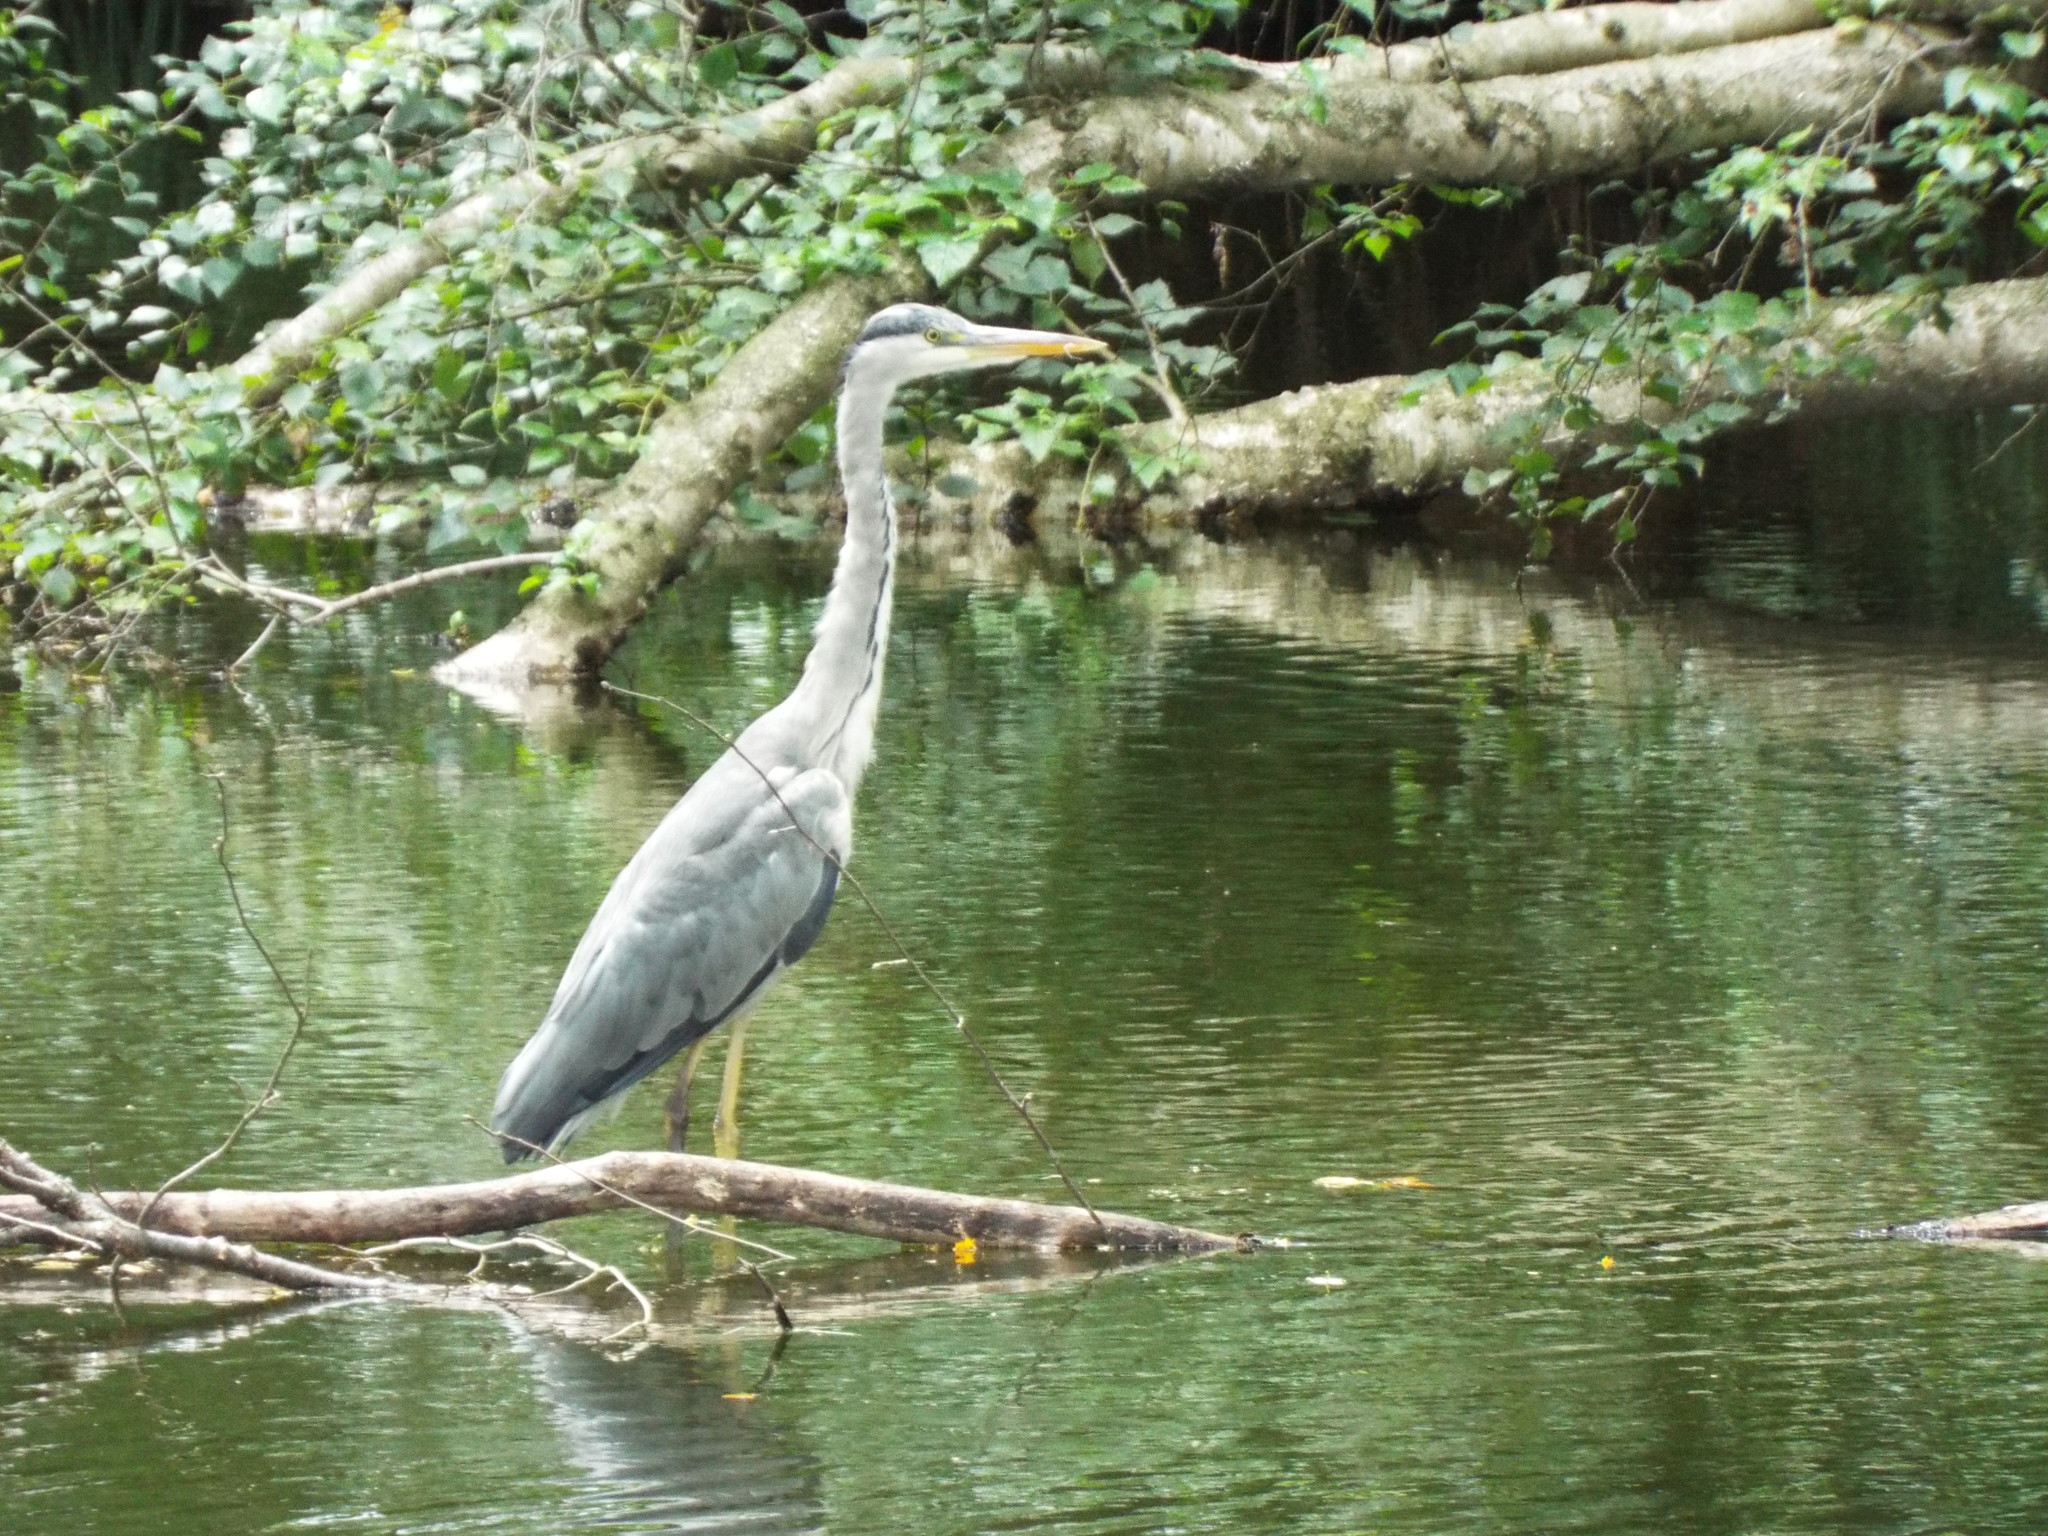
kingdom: Animalia
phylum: Chordata
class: Aves
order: Pelecaniformes
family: Ardeidae
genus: Ardea
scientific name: Ardea cinerea
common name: Grey heron
